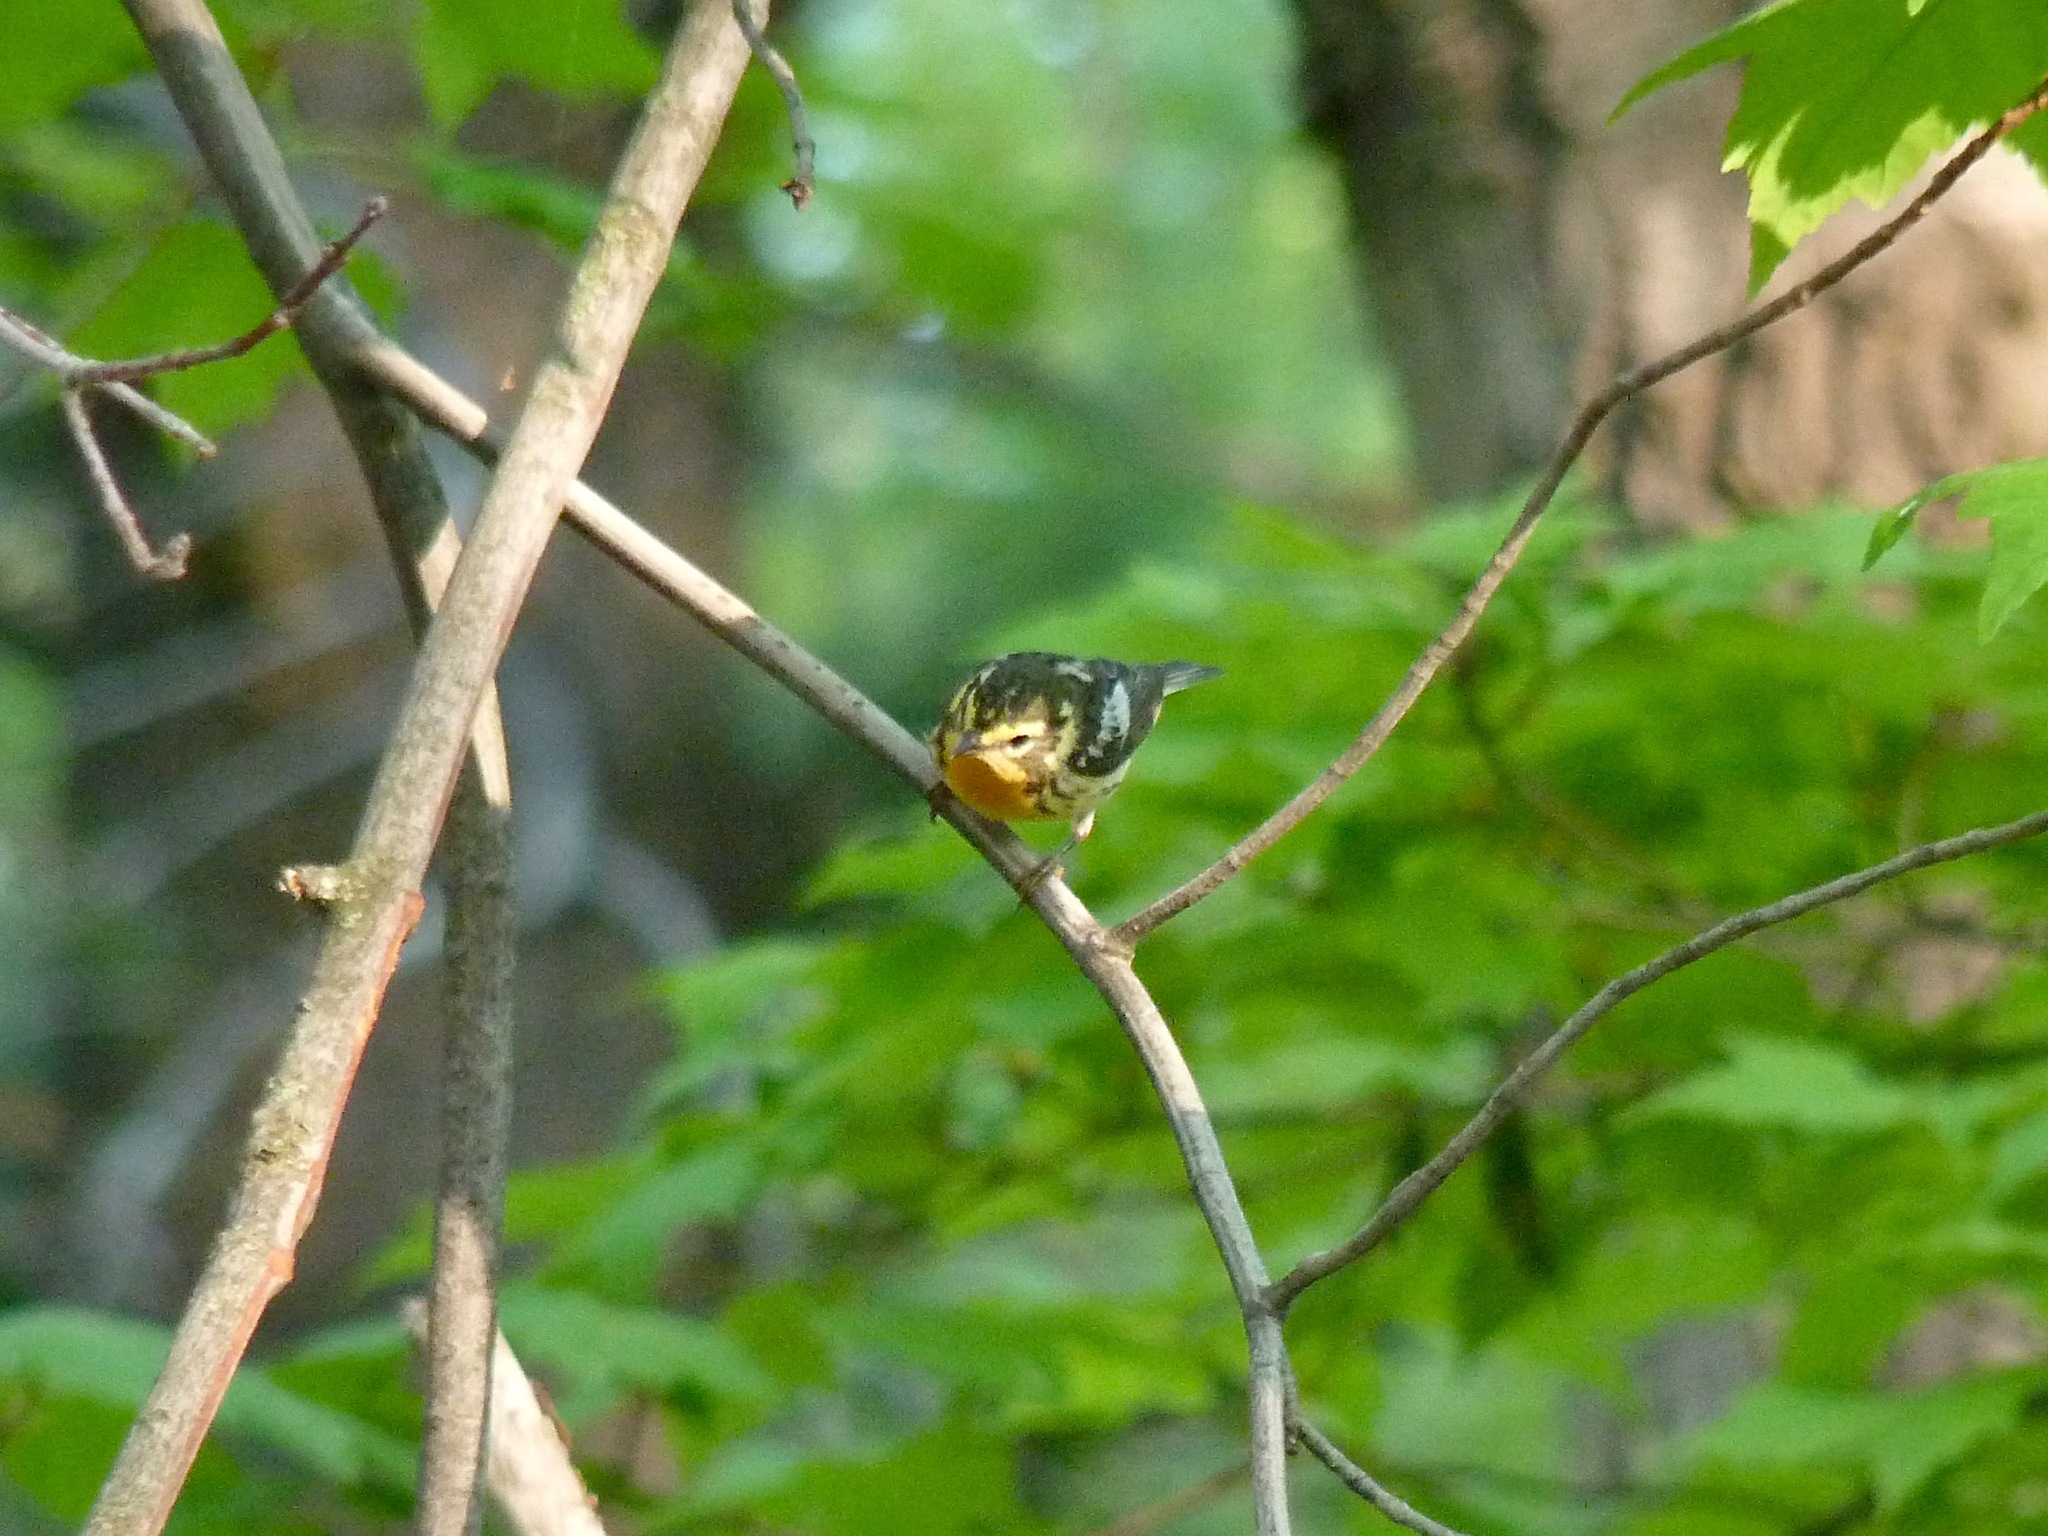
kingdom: Animalia
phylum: Chordata
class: Aves
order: Passeriformes
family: Parulidae
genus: Setophaga
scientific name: Setophaga fusca
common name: Blackburnian warbler
